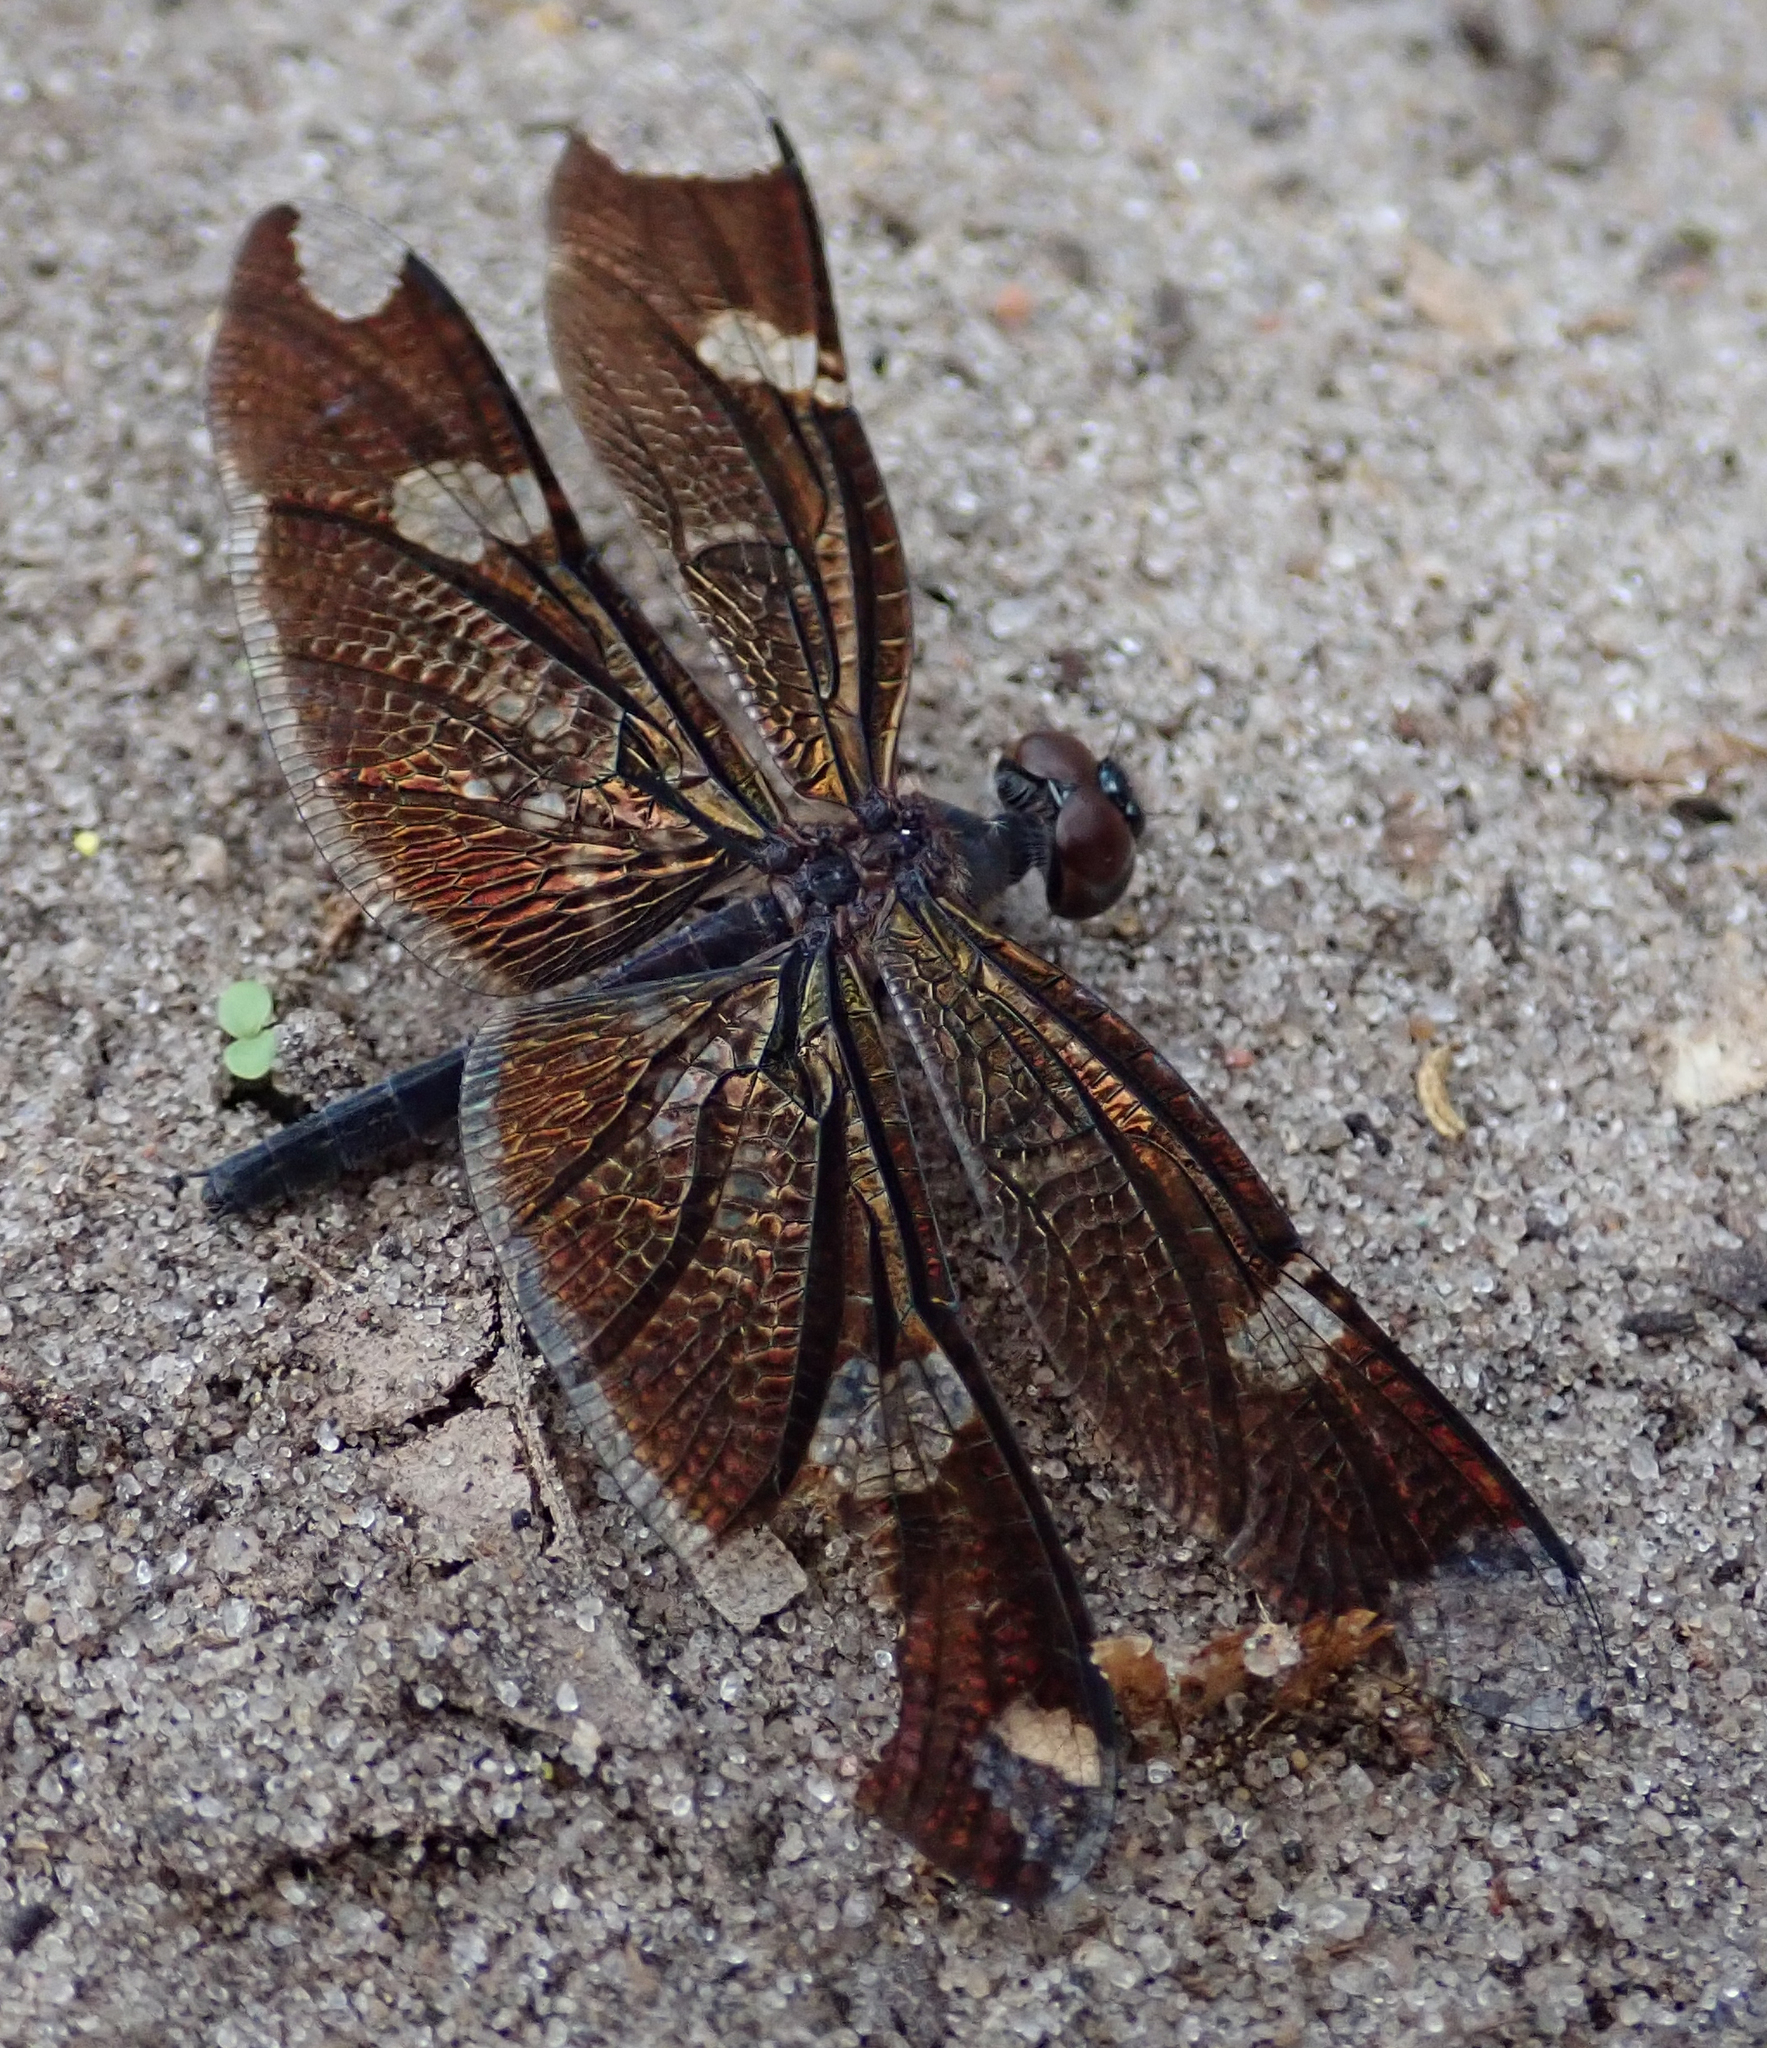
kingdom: Animalia
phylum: Arthropoda
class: Insecta
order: Odonata
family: Libellulidae
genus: Rhyothemis
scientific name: Rhyothemis fenestrina
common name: Skylight flutterer
